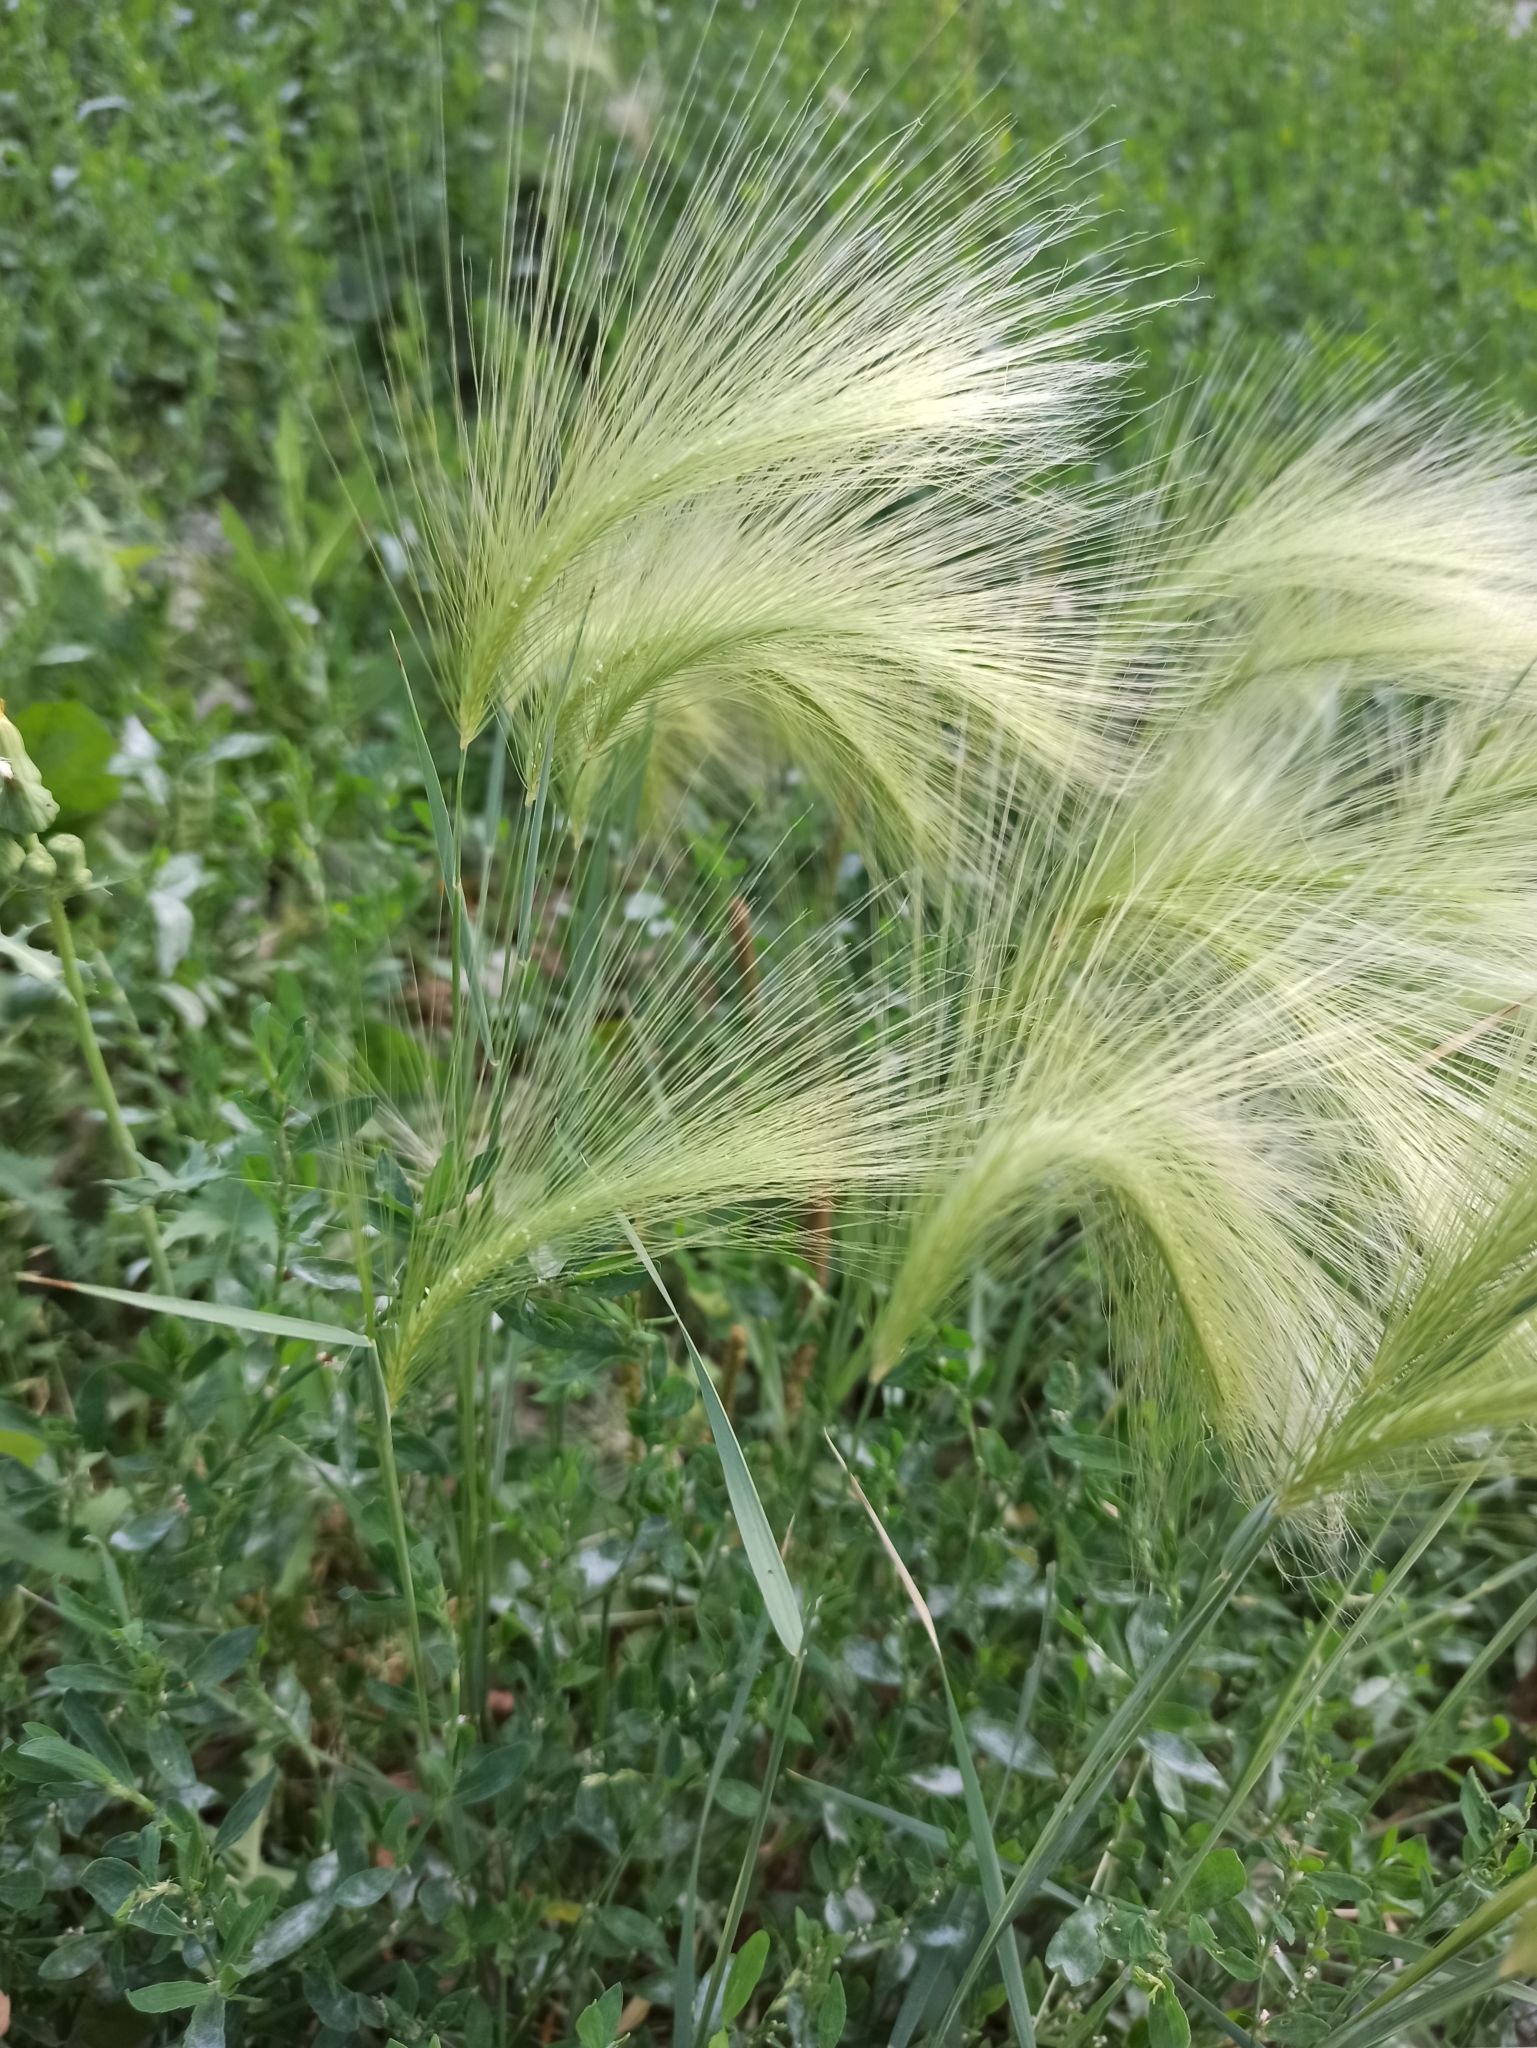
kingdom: Plantae
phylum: Tracheophyta
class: Liliopsida
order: Poales
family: Poaceae
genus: Hordeum
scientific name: Hordeum jubatum
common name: Foxtail barley
